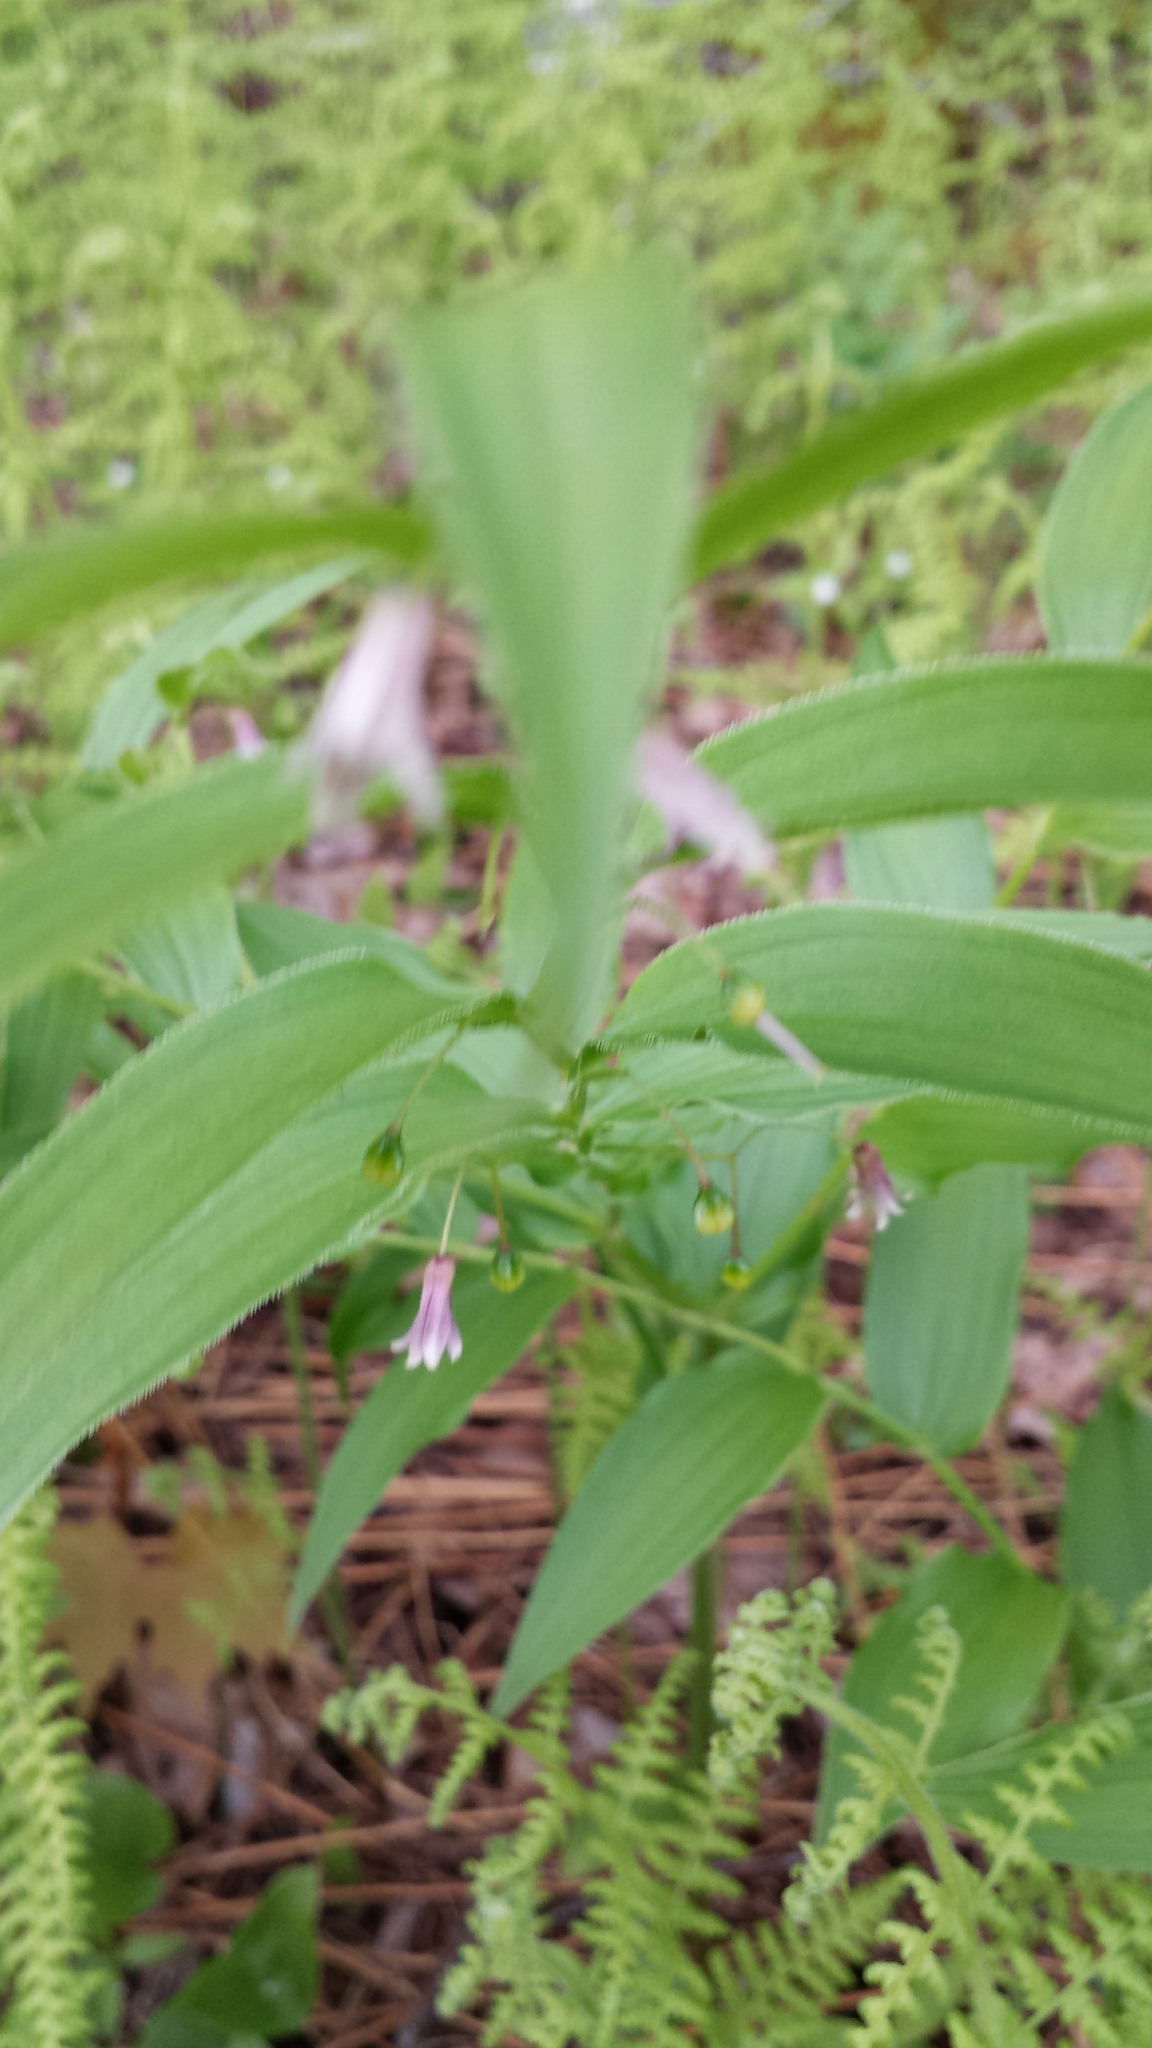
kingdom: Plantae
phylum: Tracheophyta
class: Liliopsida
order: Liliales
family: Liliaceae
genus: Streptopus
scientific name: Streptopus lanceolatus
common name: Rose mandarin
